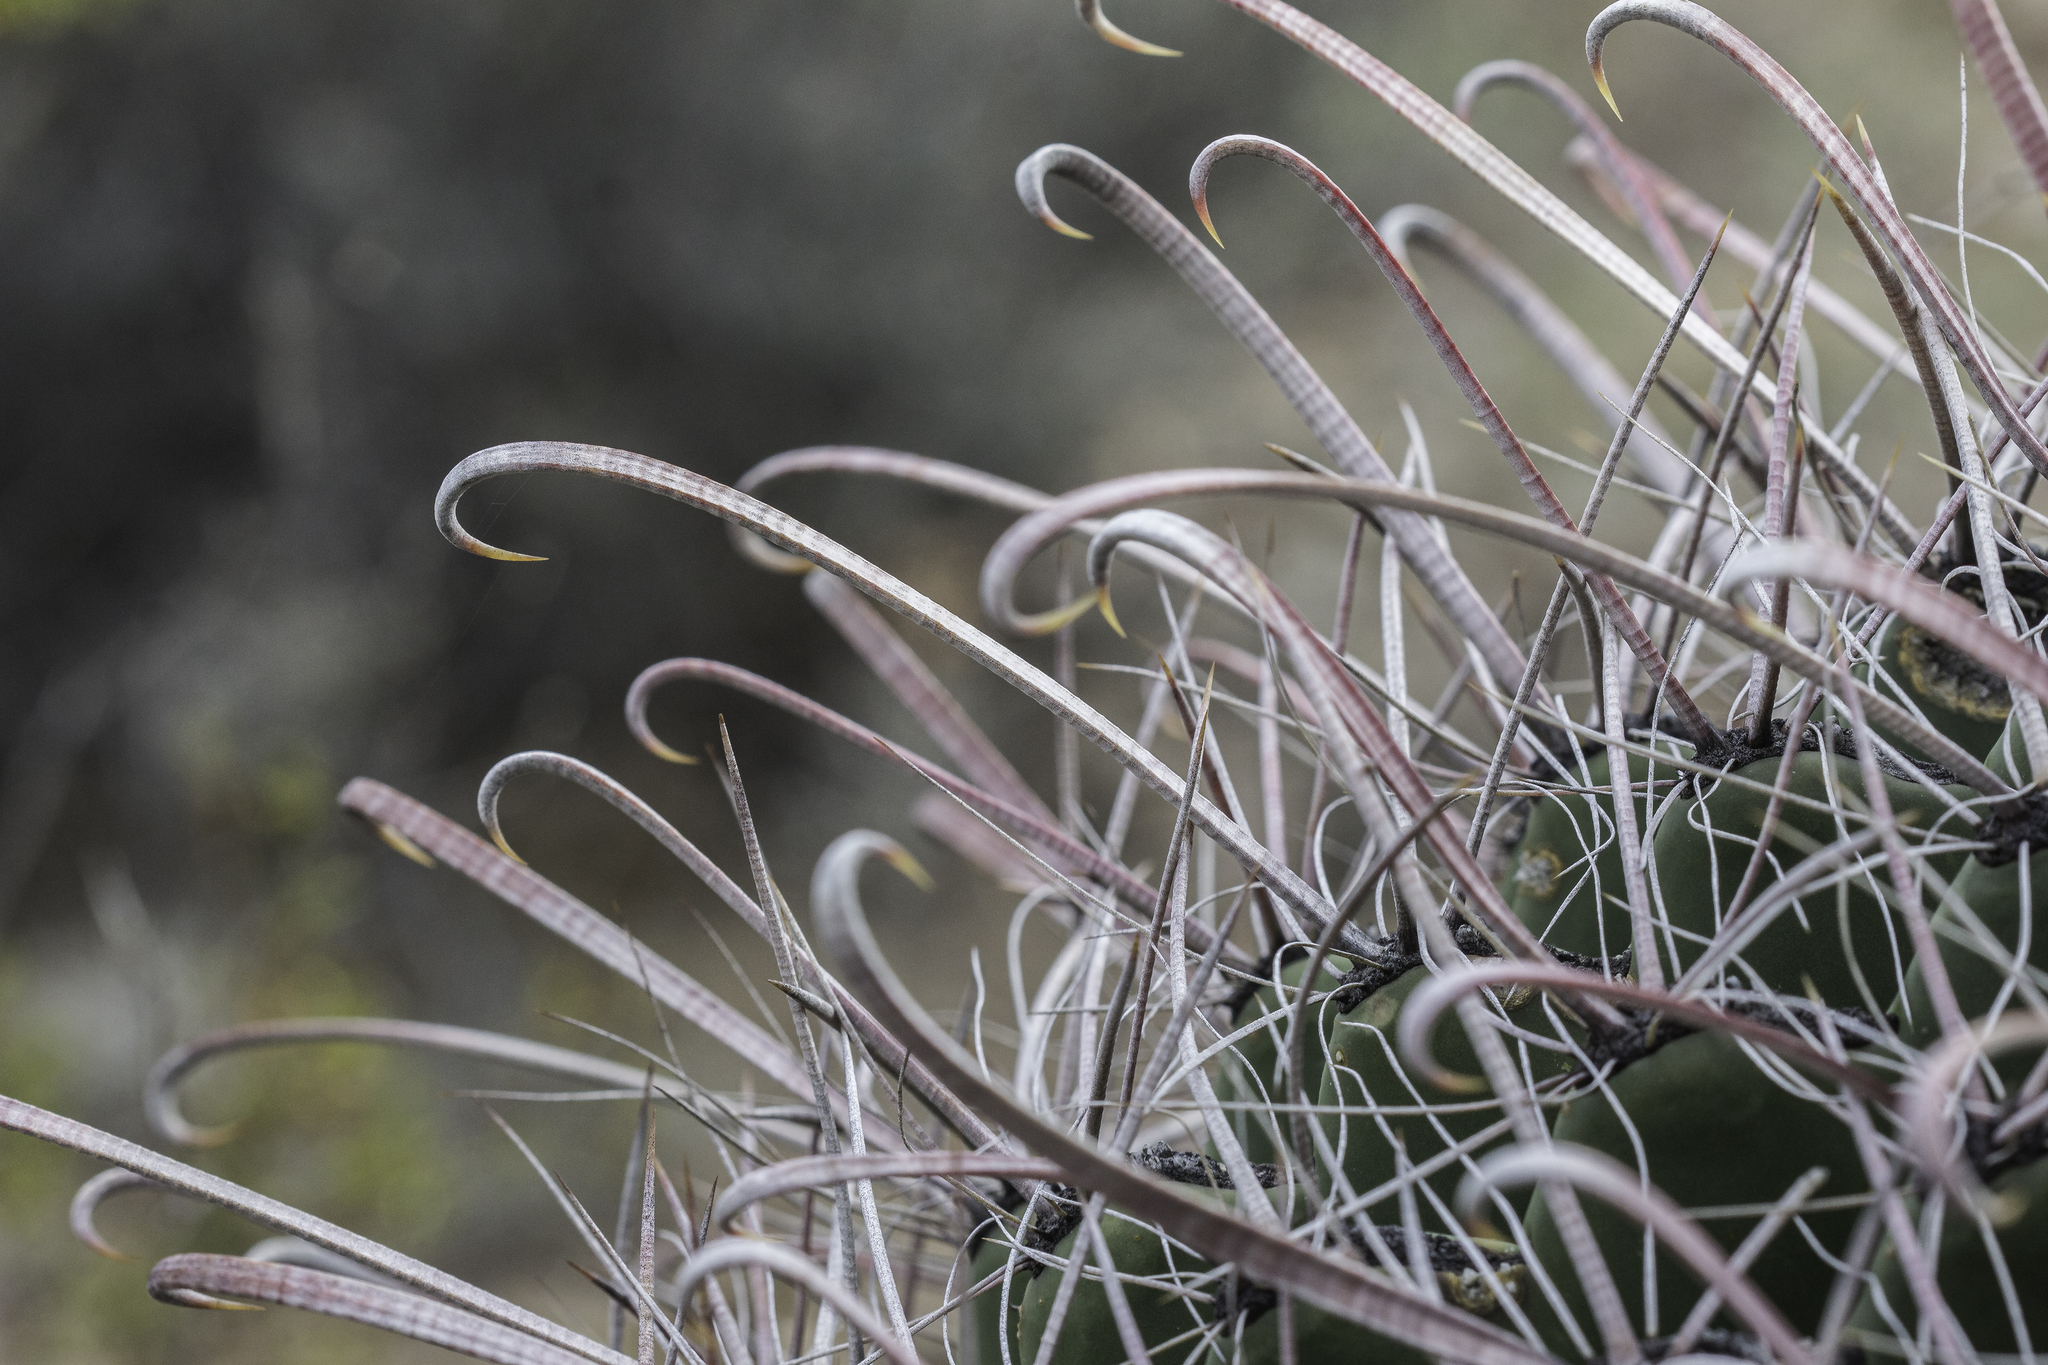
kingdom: Plantae
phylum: Tracheophyta
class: Magnoliopsida
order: Caryophyllales
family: Cactaceae
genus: Ferocactus
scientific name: Ferocactus wislizeni
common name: Candy barrel cactus
